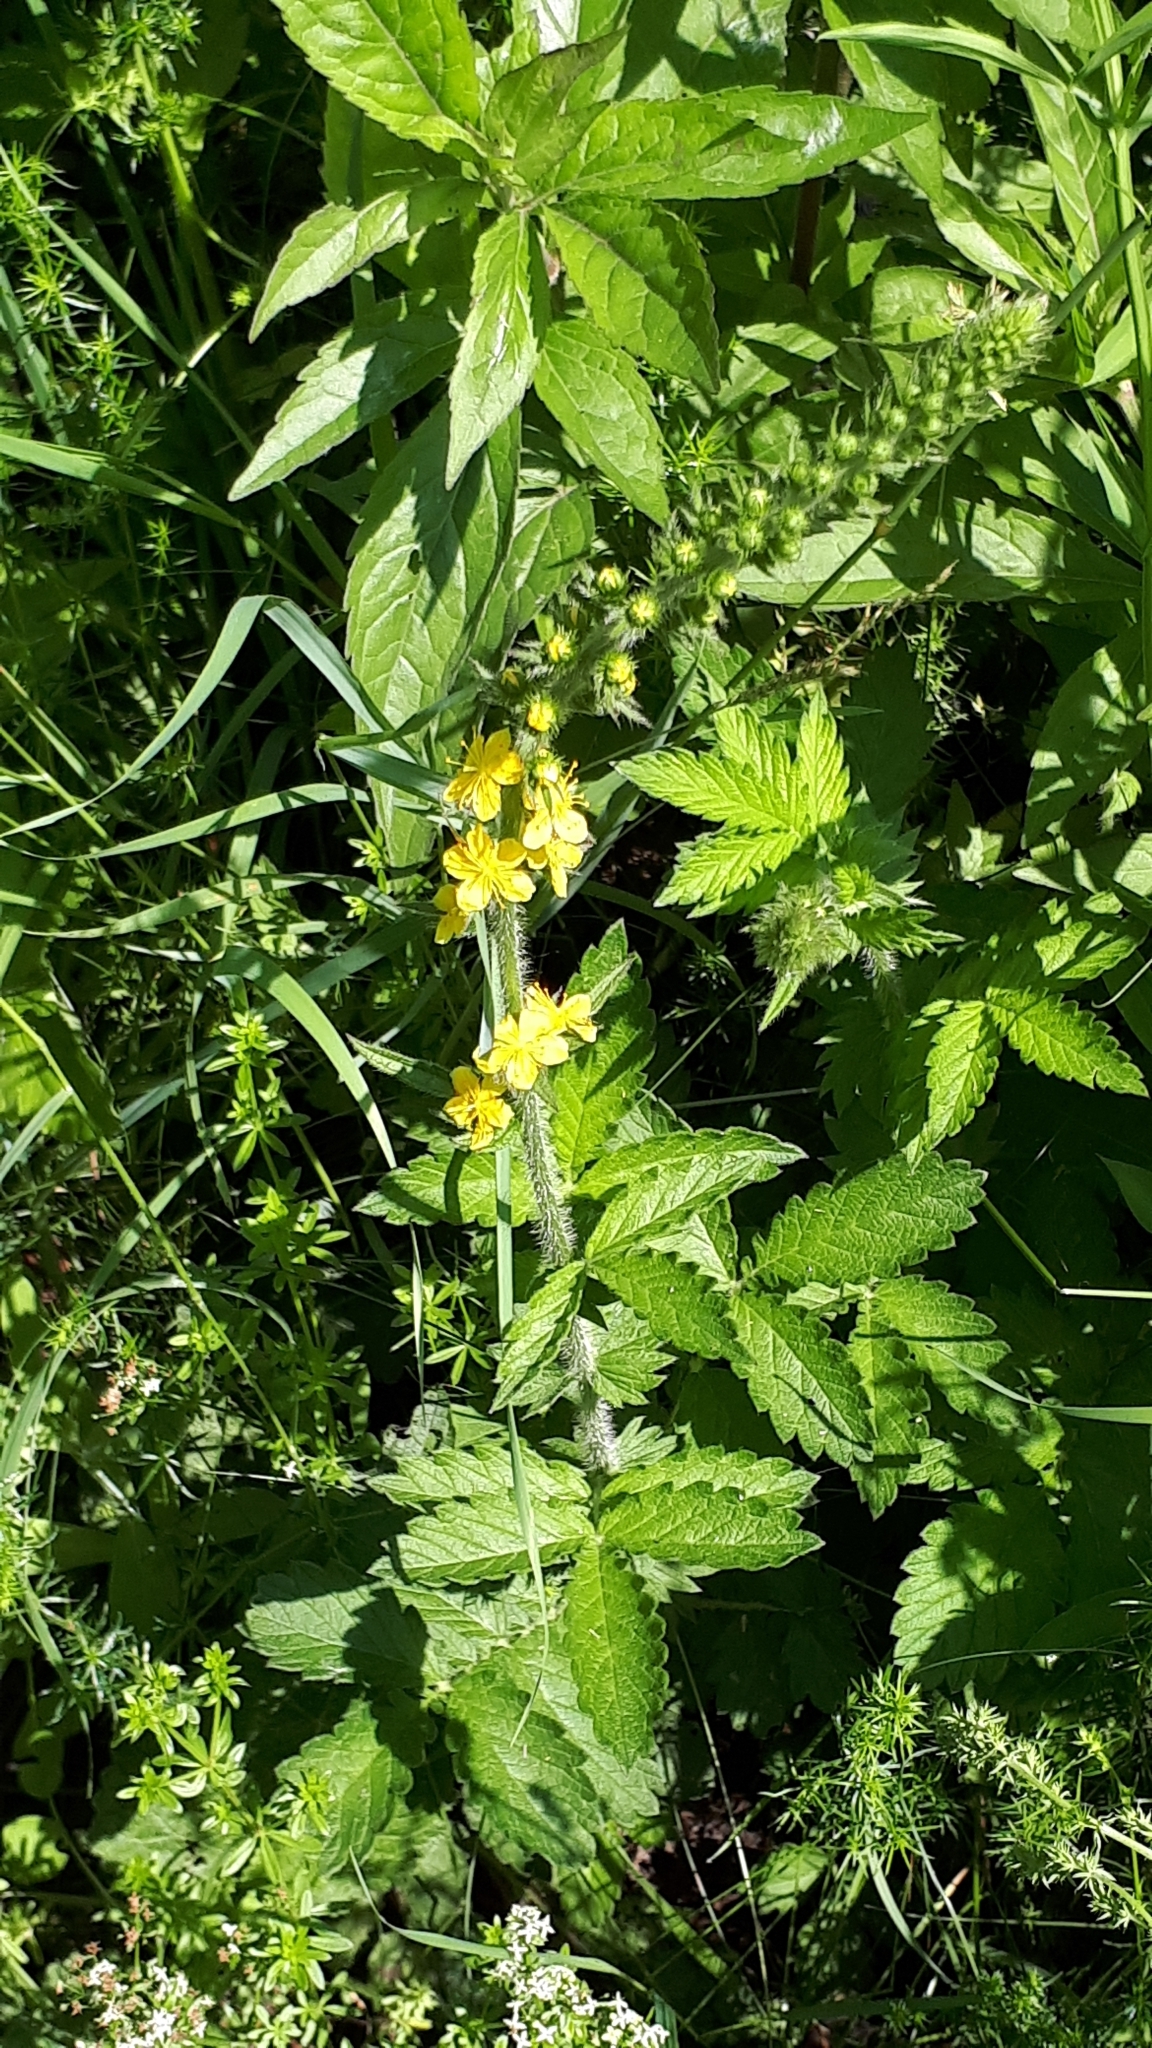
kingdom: Plantae
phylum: Tracheophyta
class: Magnoliopsida
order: Rosales
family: Rosaceae
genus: Agrimonia
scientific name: Agrimonia eupatoria
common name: Agrimony
